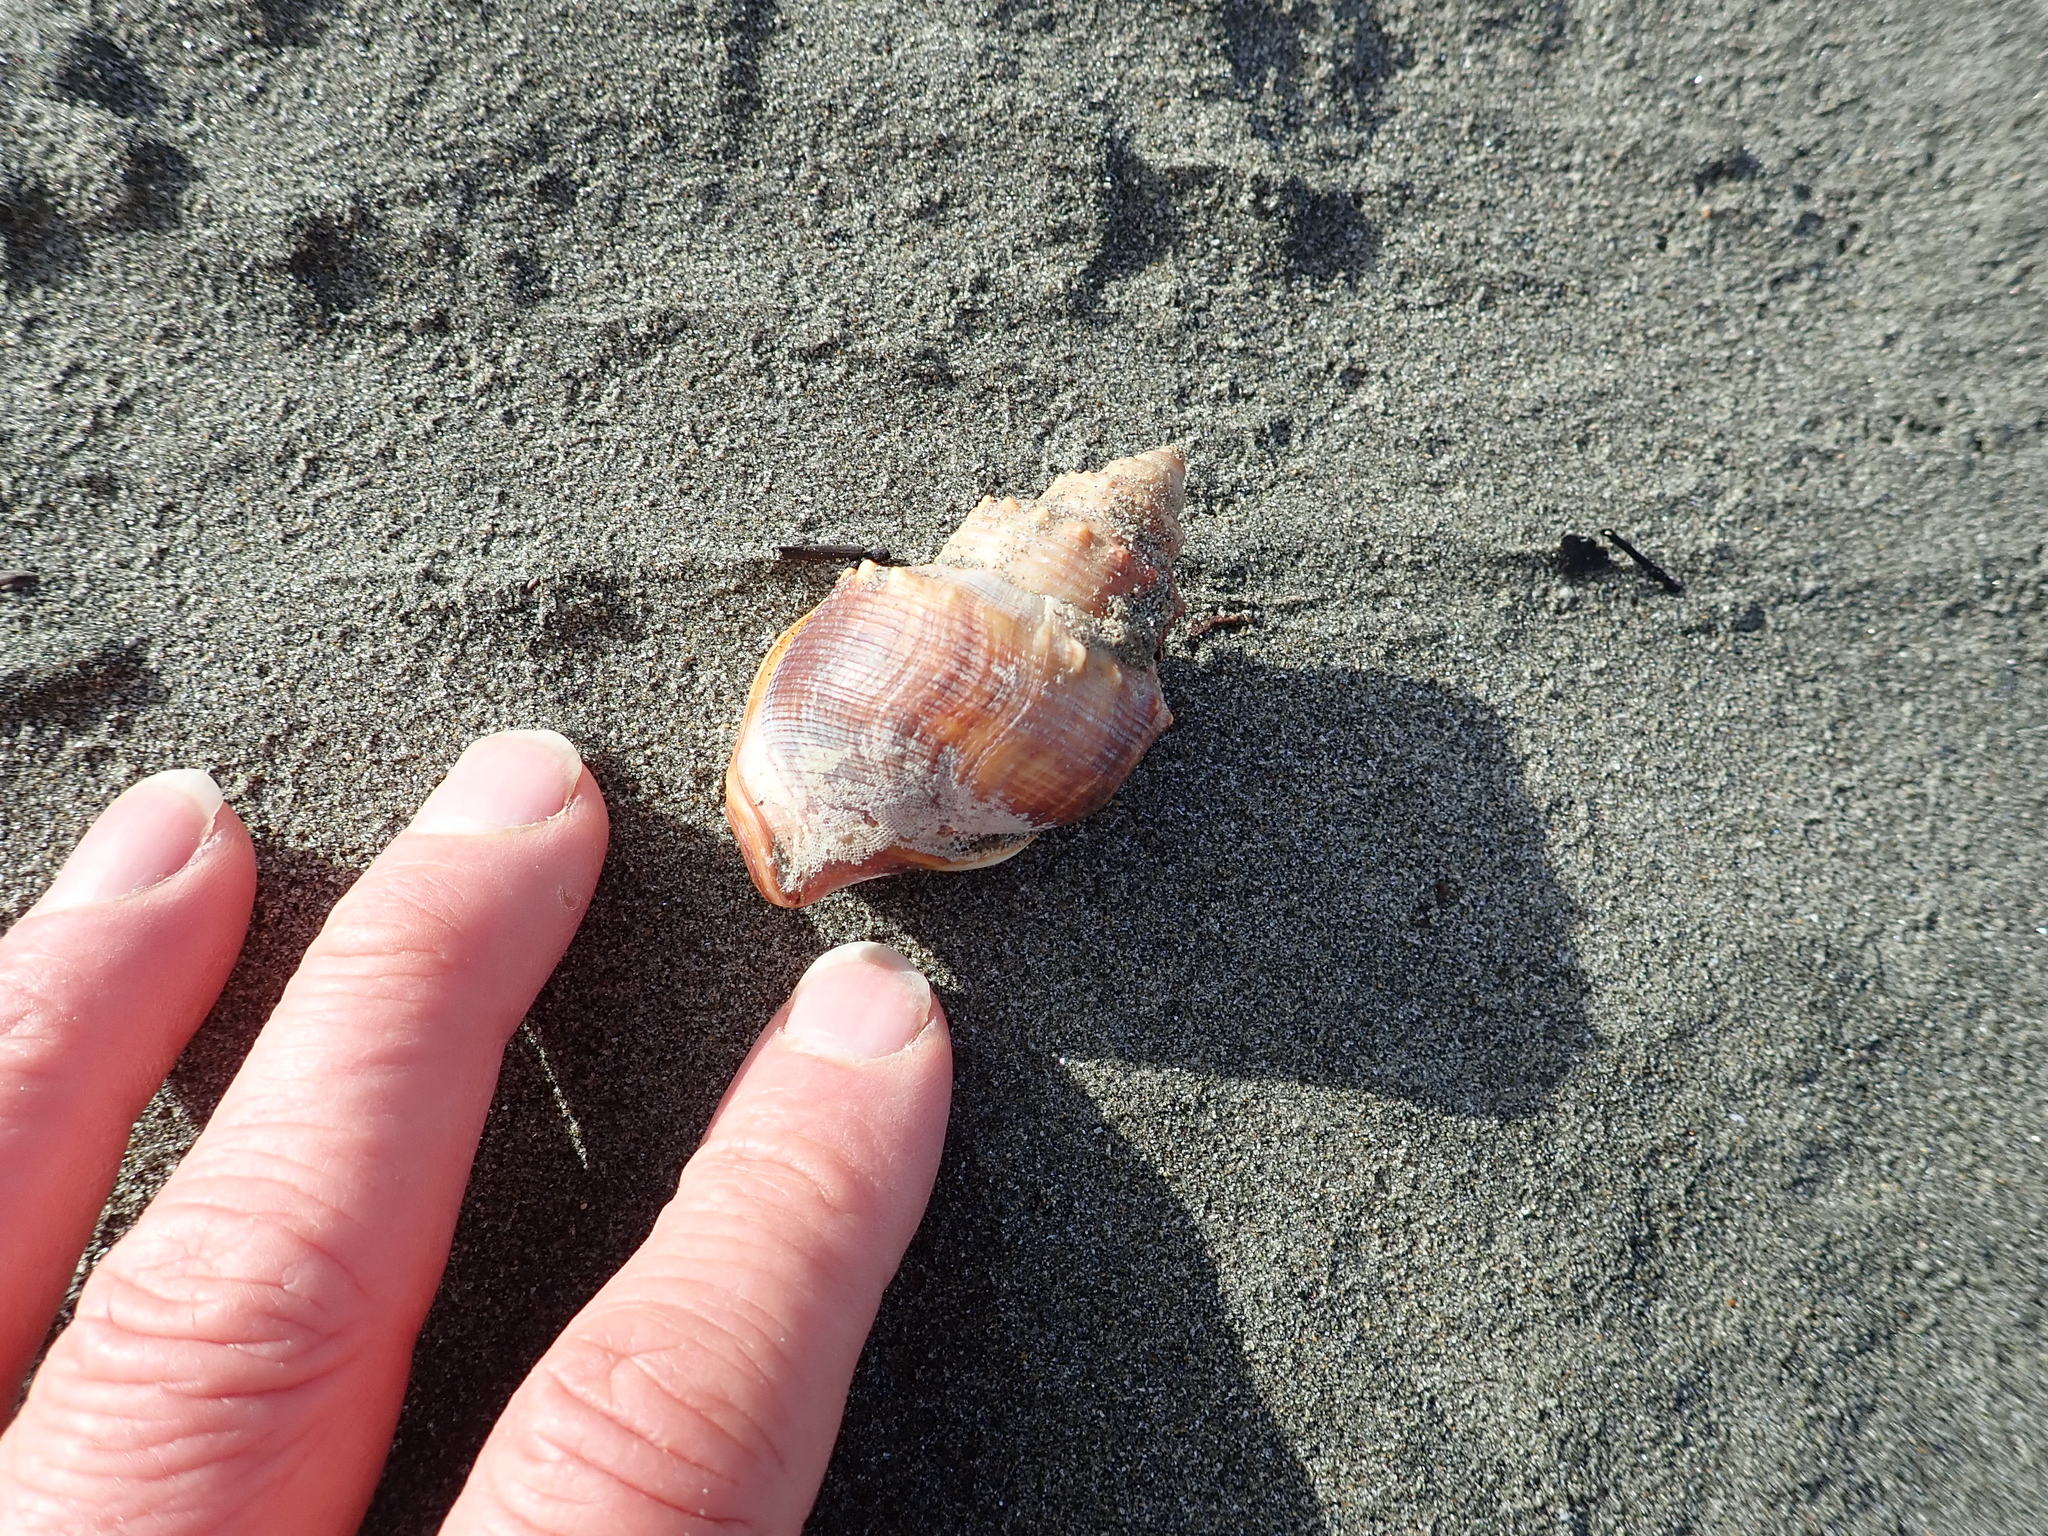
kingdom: Animalia
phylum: Mollusca
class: Gastropoda
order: Littorinimorpha
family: Struthiolariidae
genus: Struthiolaria
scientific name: Struthiolaria papulosa
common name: Large ostrich foot
